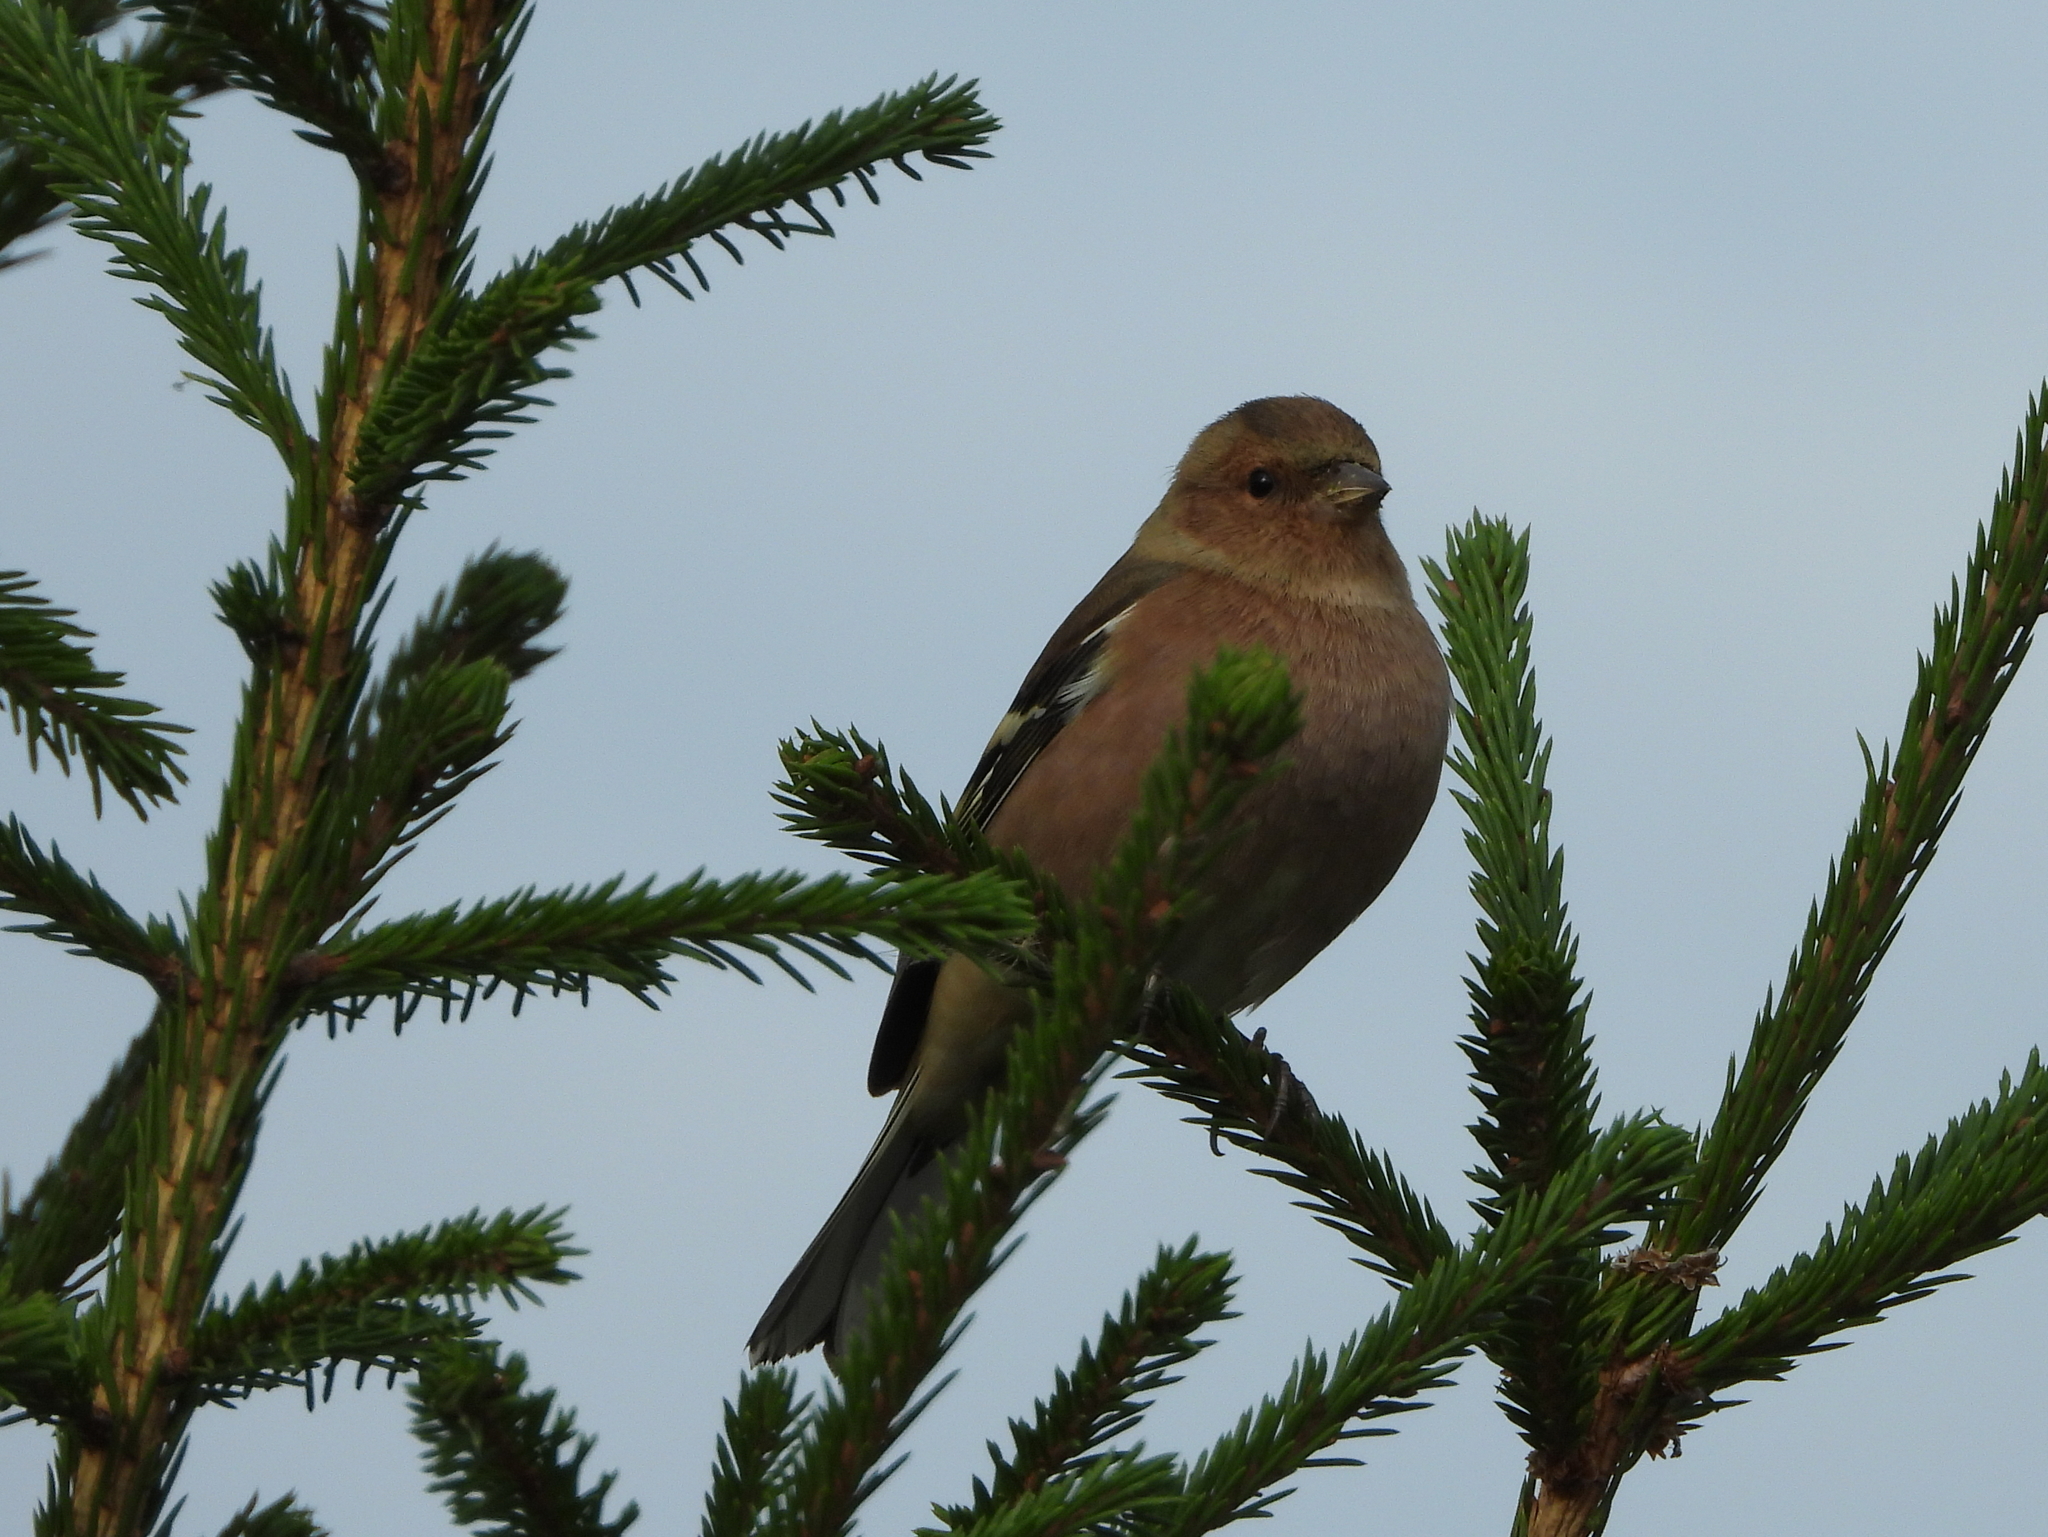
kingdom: Animalia
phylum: Chordata
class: Aves
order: Passeriformes
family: Fringillidae
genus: Fringilla
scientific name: Fringilla coelebs
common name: Common chaffinch
